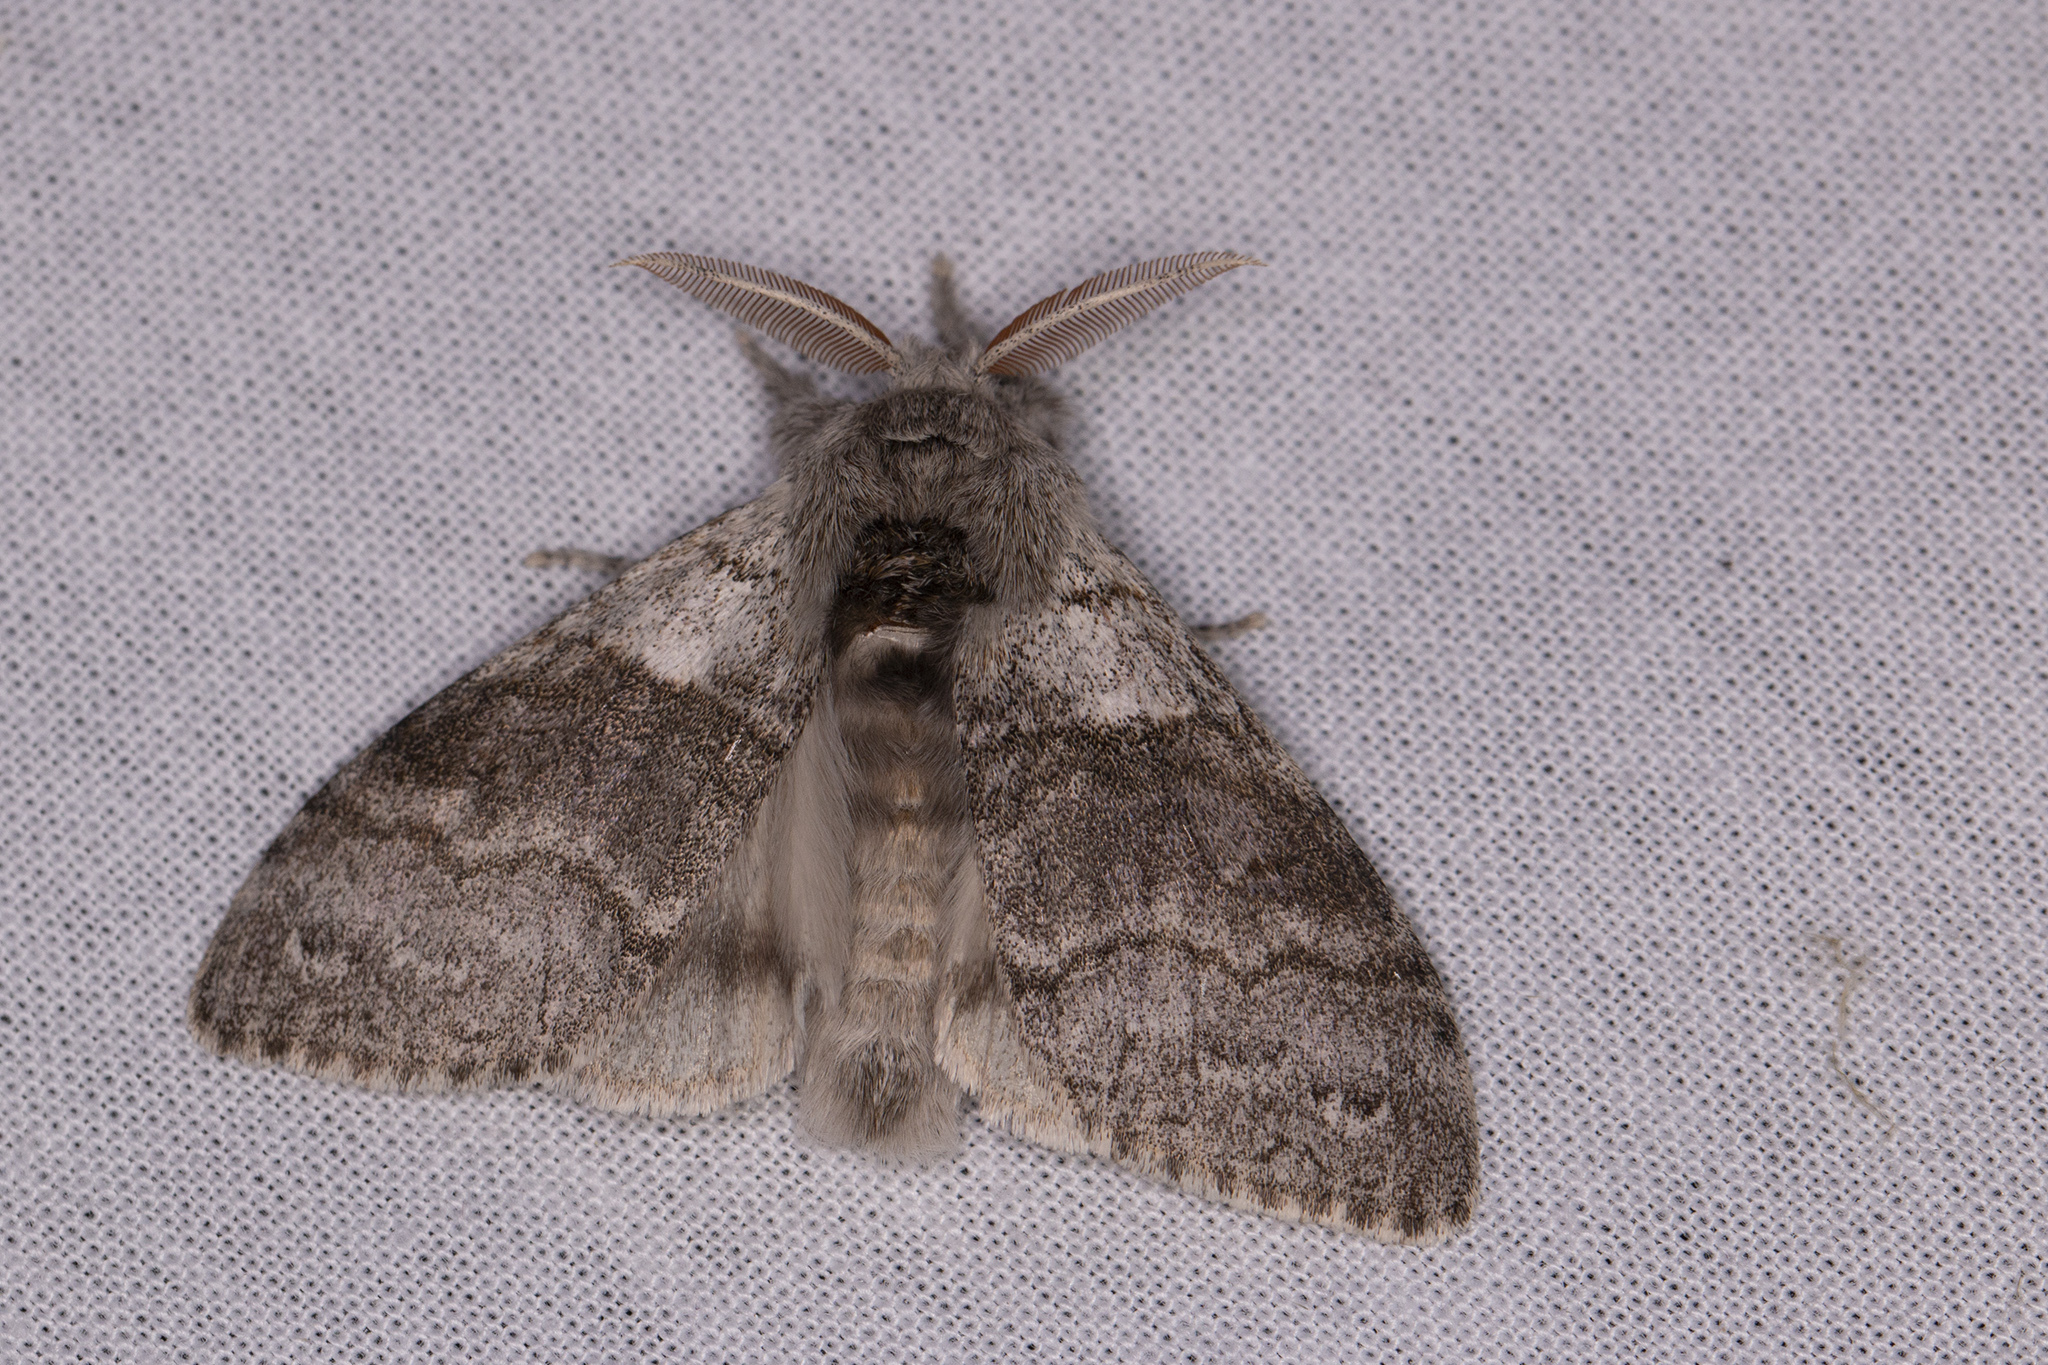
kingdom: Animalia
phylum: Arthropoda
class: Insecta
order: Lepidoptera
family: Erebidae
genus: Calliteara
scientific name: Calliteara pudibunda
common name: Pale tussock
